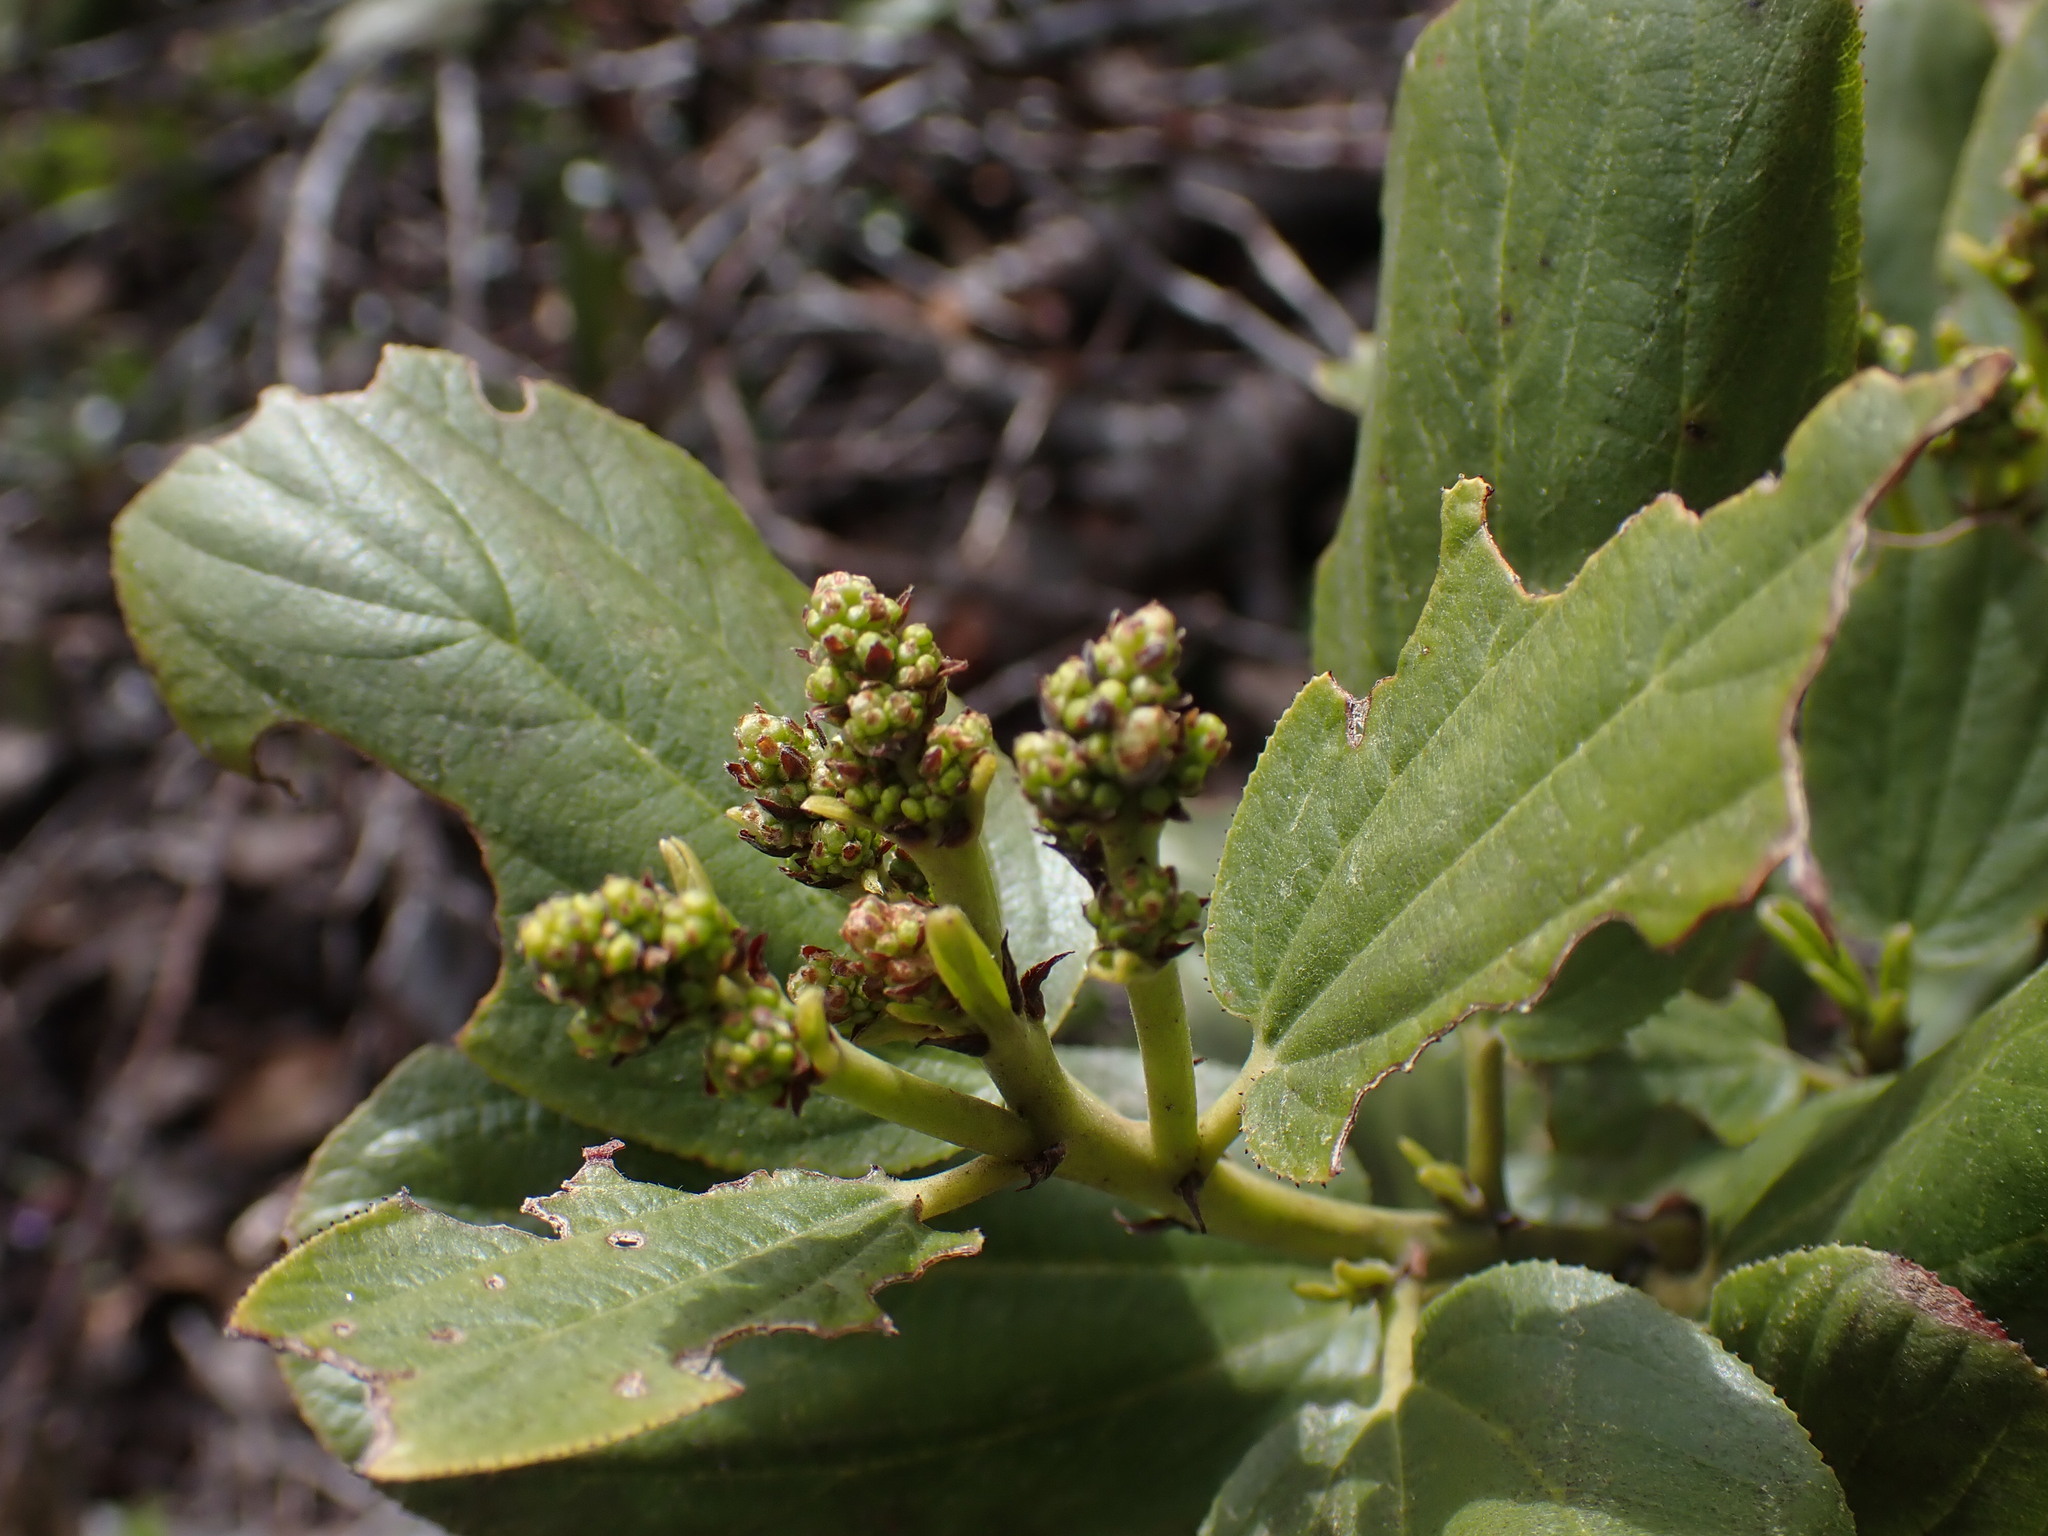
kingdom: Plantae
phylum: Tracheophyta
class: Magnoliopsida
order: Rosales
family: Rhamnaceae
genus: Ceanothus
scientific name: Ceanothus velutinus
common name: Snowbrush
